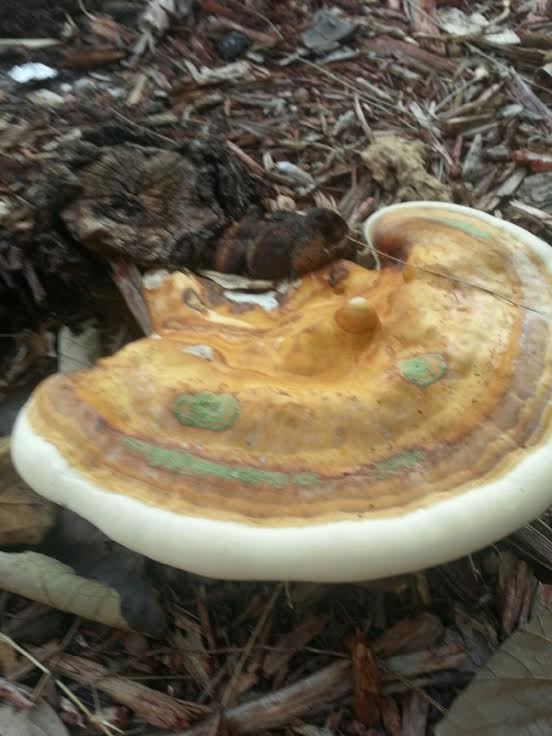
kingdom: Fungi
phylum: Basidiomycota
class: Agaricomycetes
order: Polyporales
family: Polyporaceae
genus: Ganoderma
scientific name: Ganoderma zonatum
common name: Ganoderma butt rot
